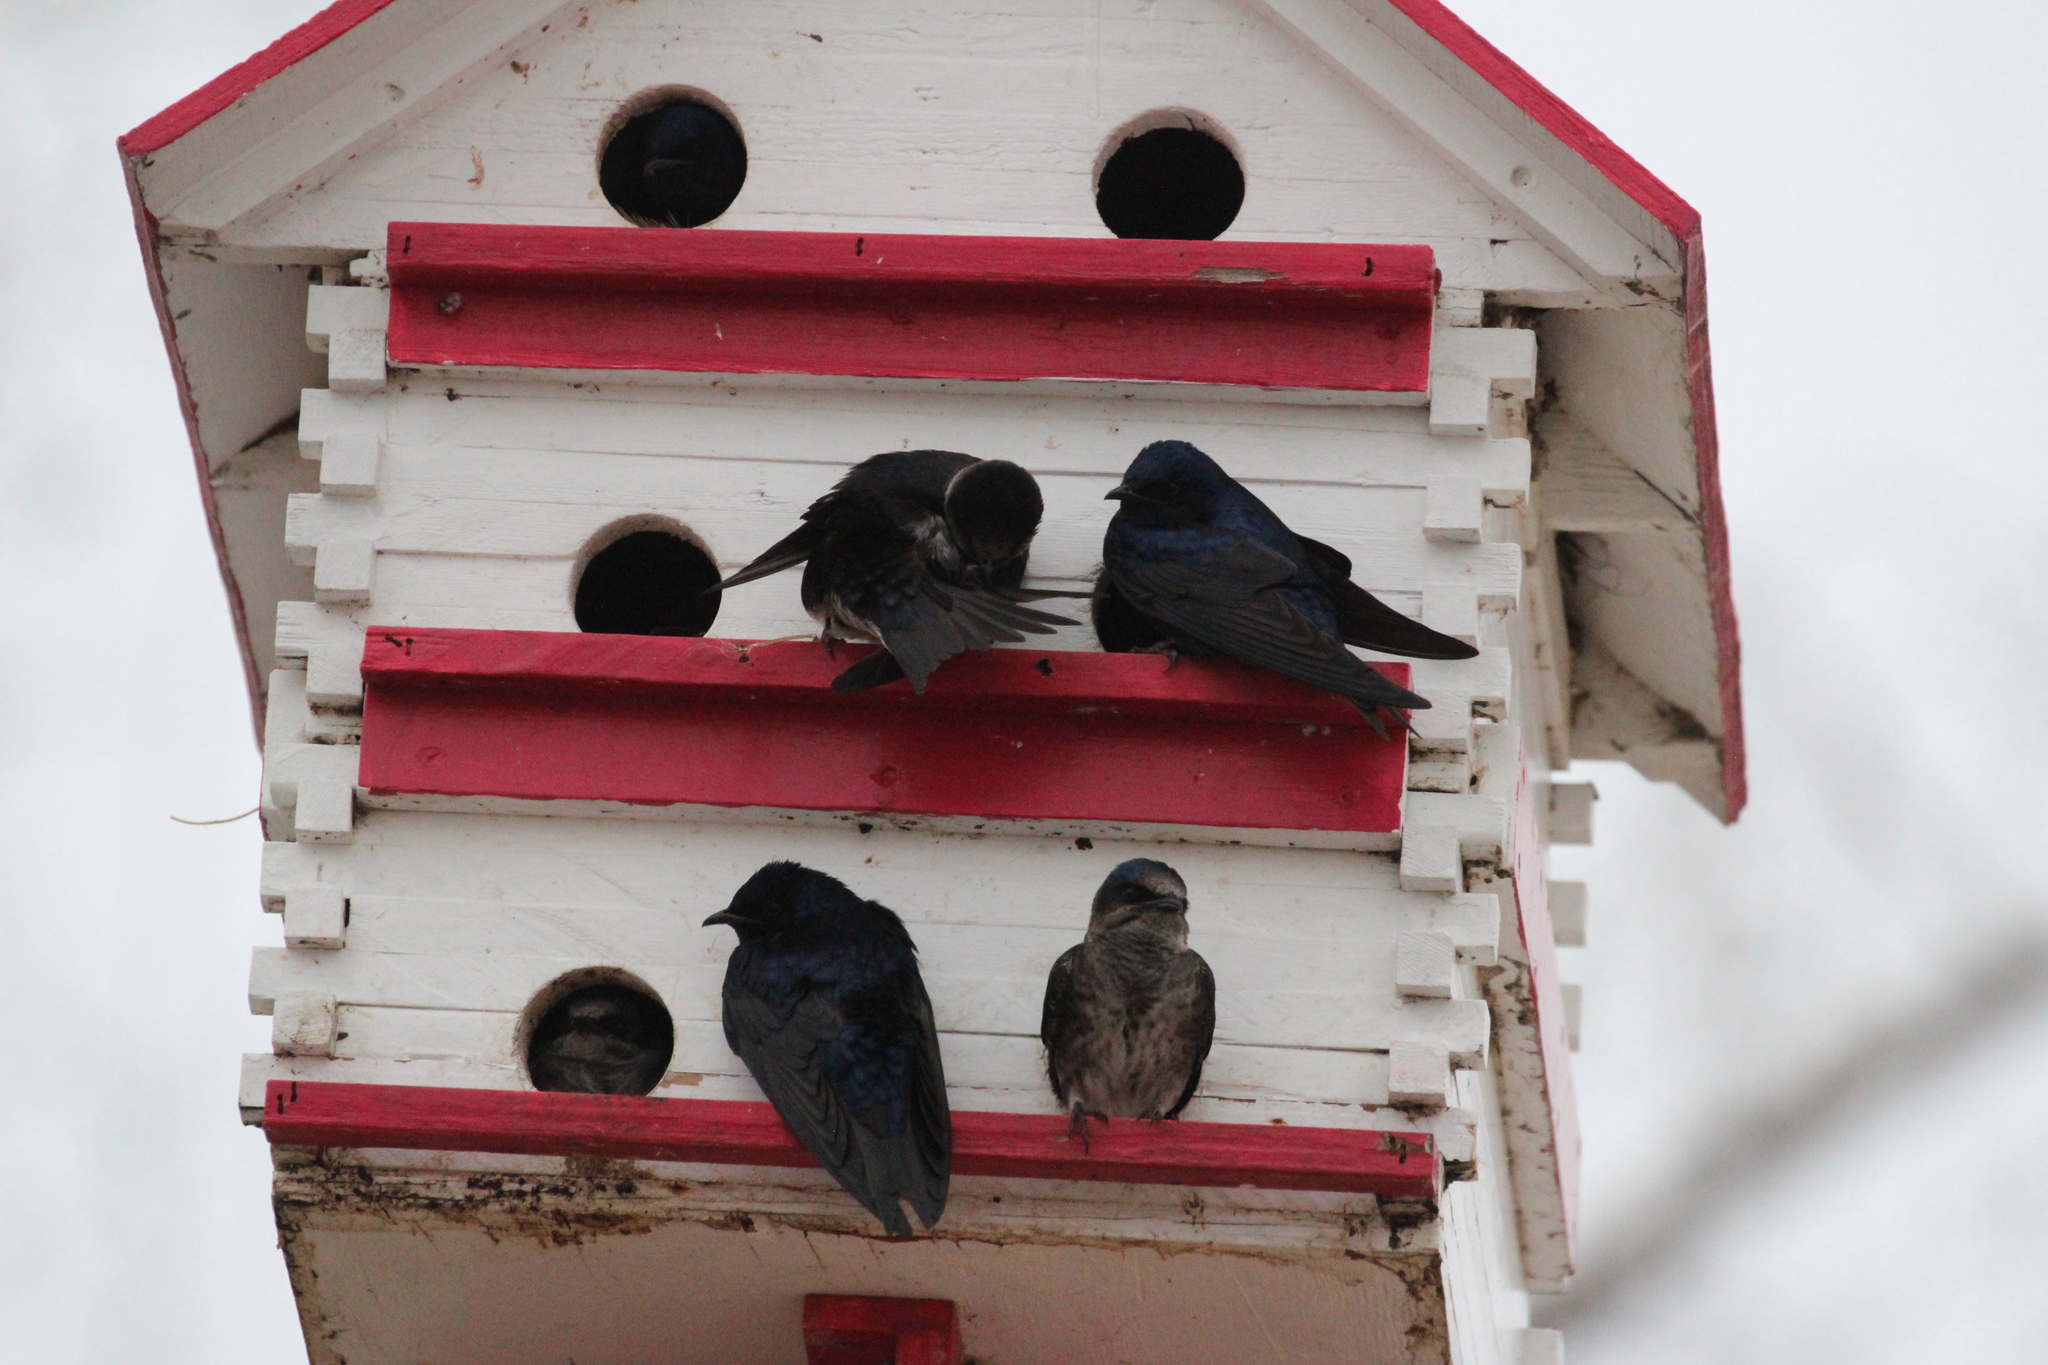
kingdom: Animalia
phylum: Chordata
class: Aves
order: Passeriformes
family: Hirundinidae
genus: Progne
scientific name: Progne subis
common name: Purple martin
